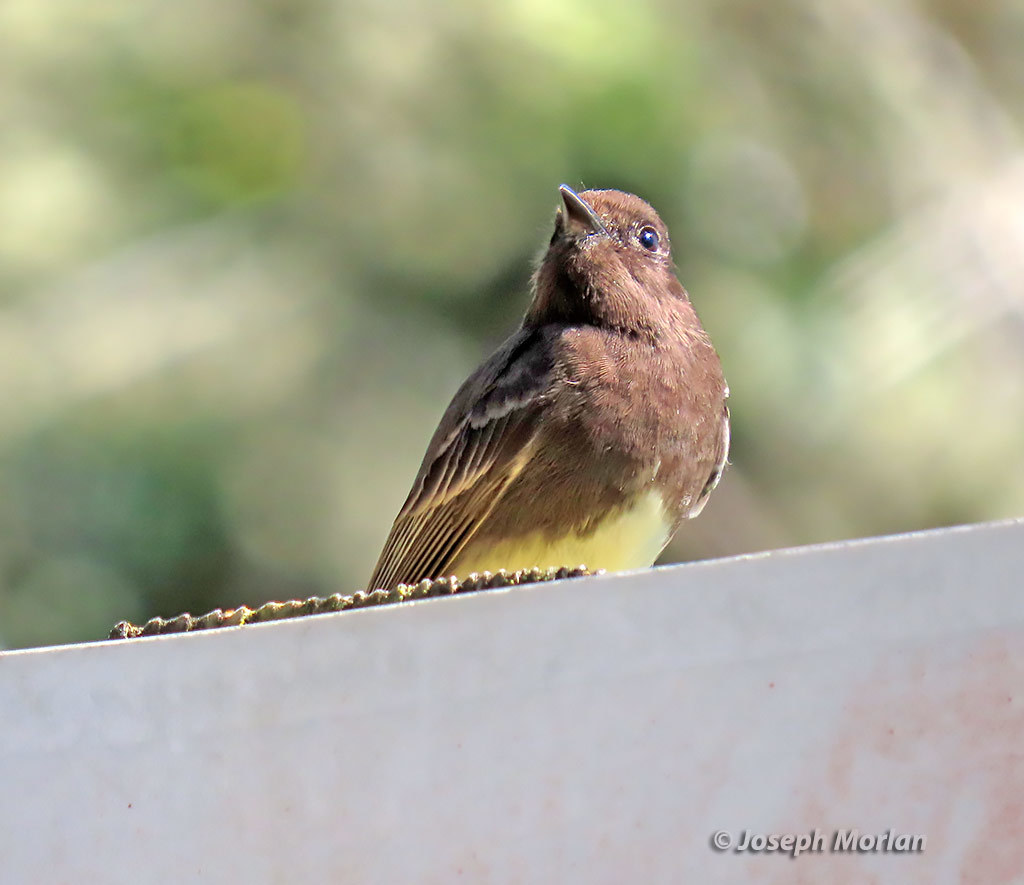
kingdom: Animalia
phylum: Chordata
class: Aves
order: Passeriformes
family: Tyrannidae
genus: Sayornis
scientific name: Sayornis nigricans
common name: Black phoebe
